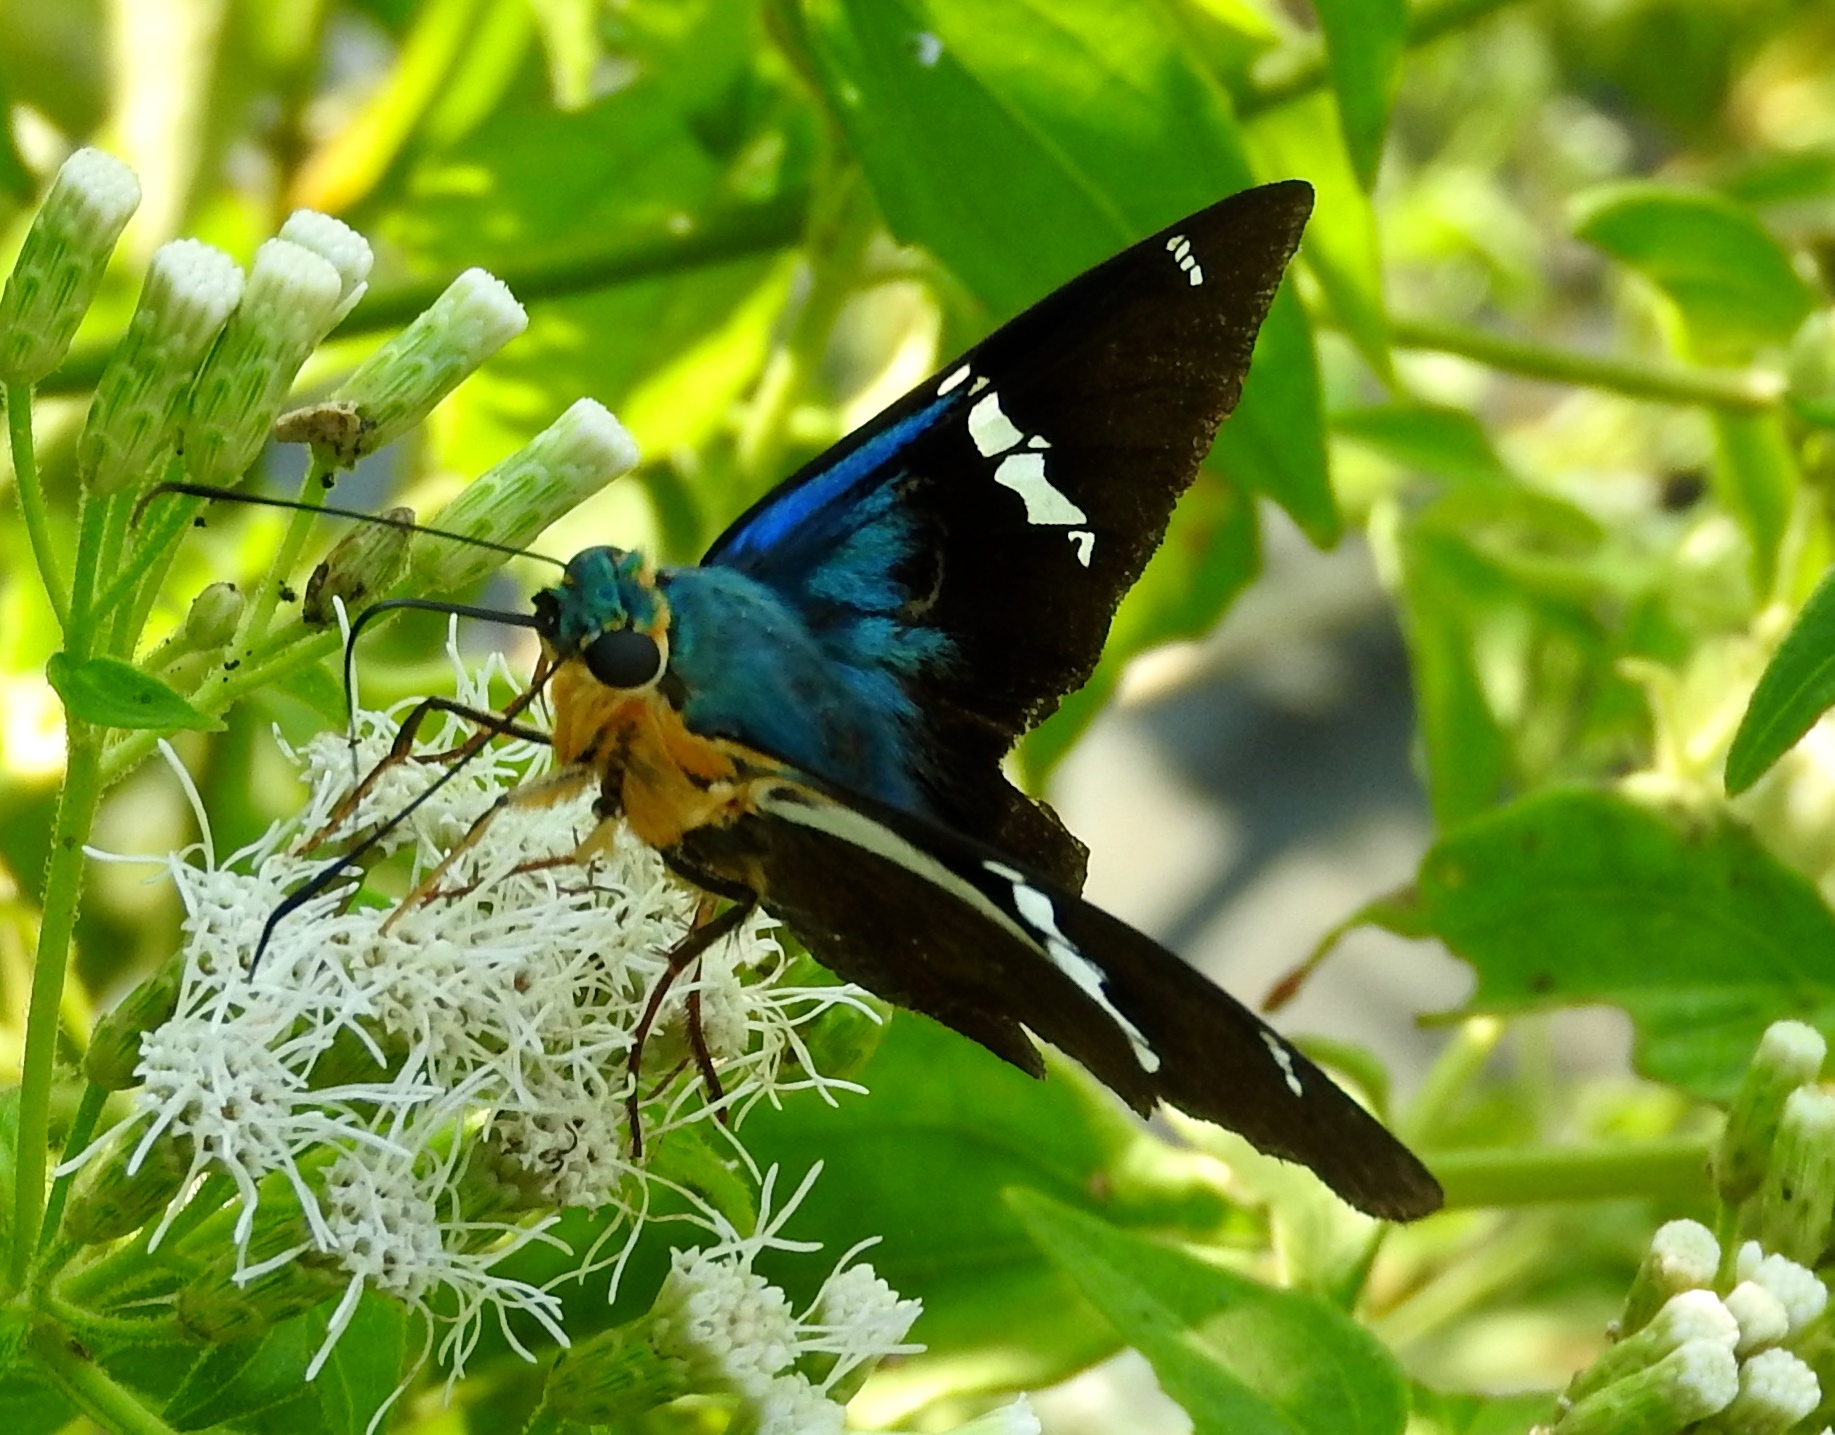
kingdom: Animalia
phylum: Arthropoda
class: Insecta
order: Lepidoptera
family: Hesperiidae
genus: Astraptes
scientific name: Astraptes fulgerator
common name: Two-barred flasher
